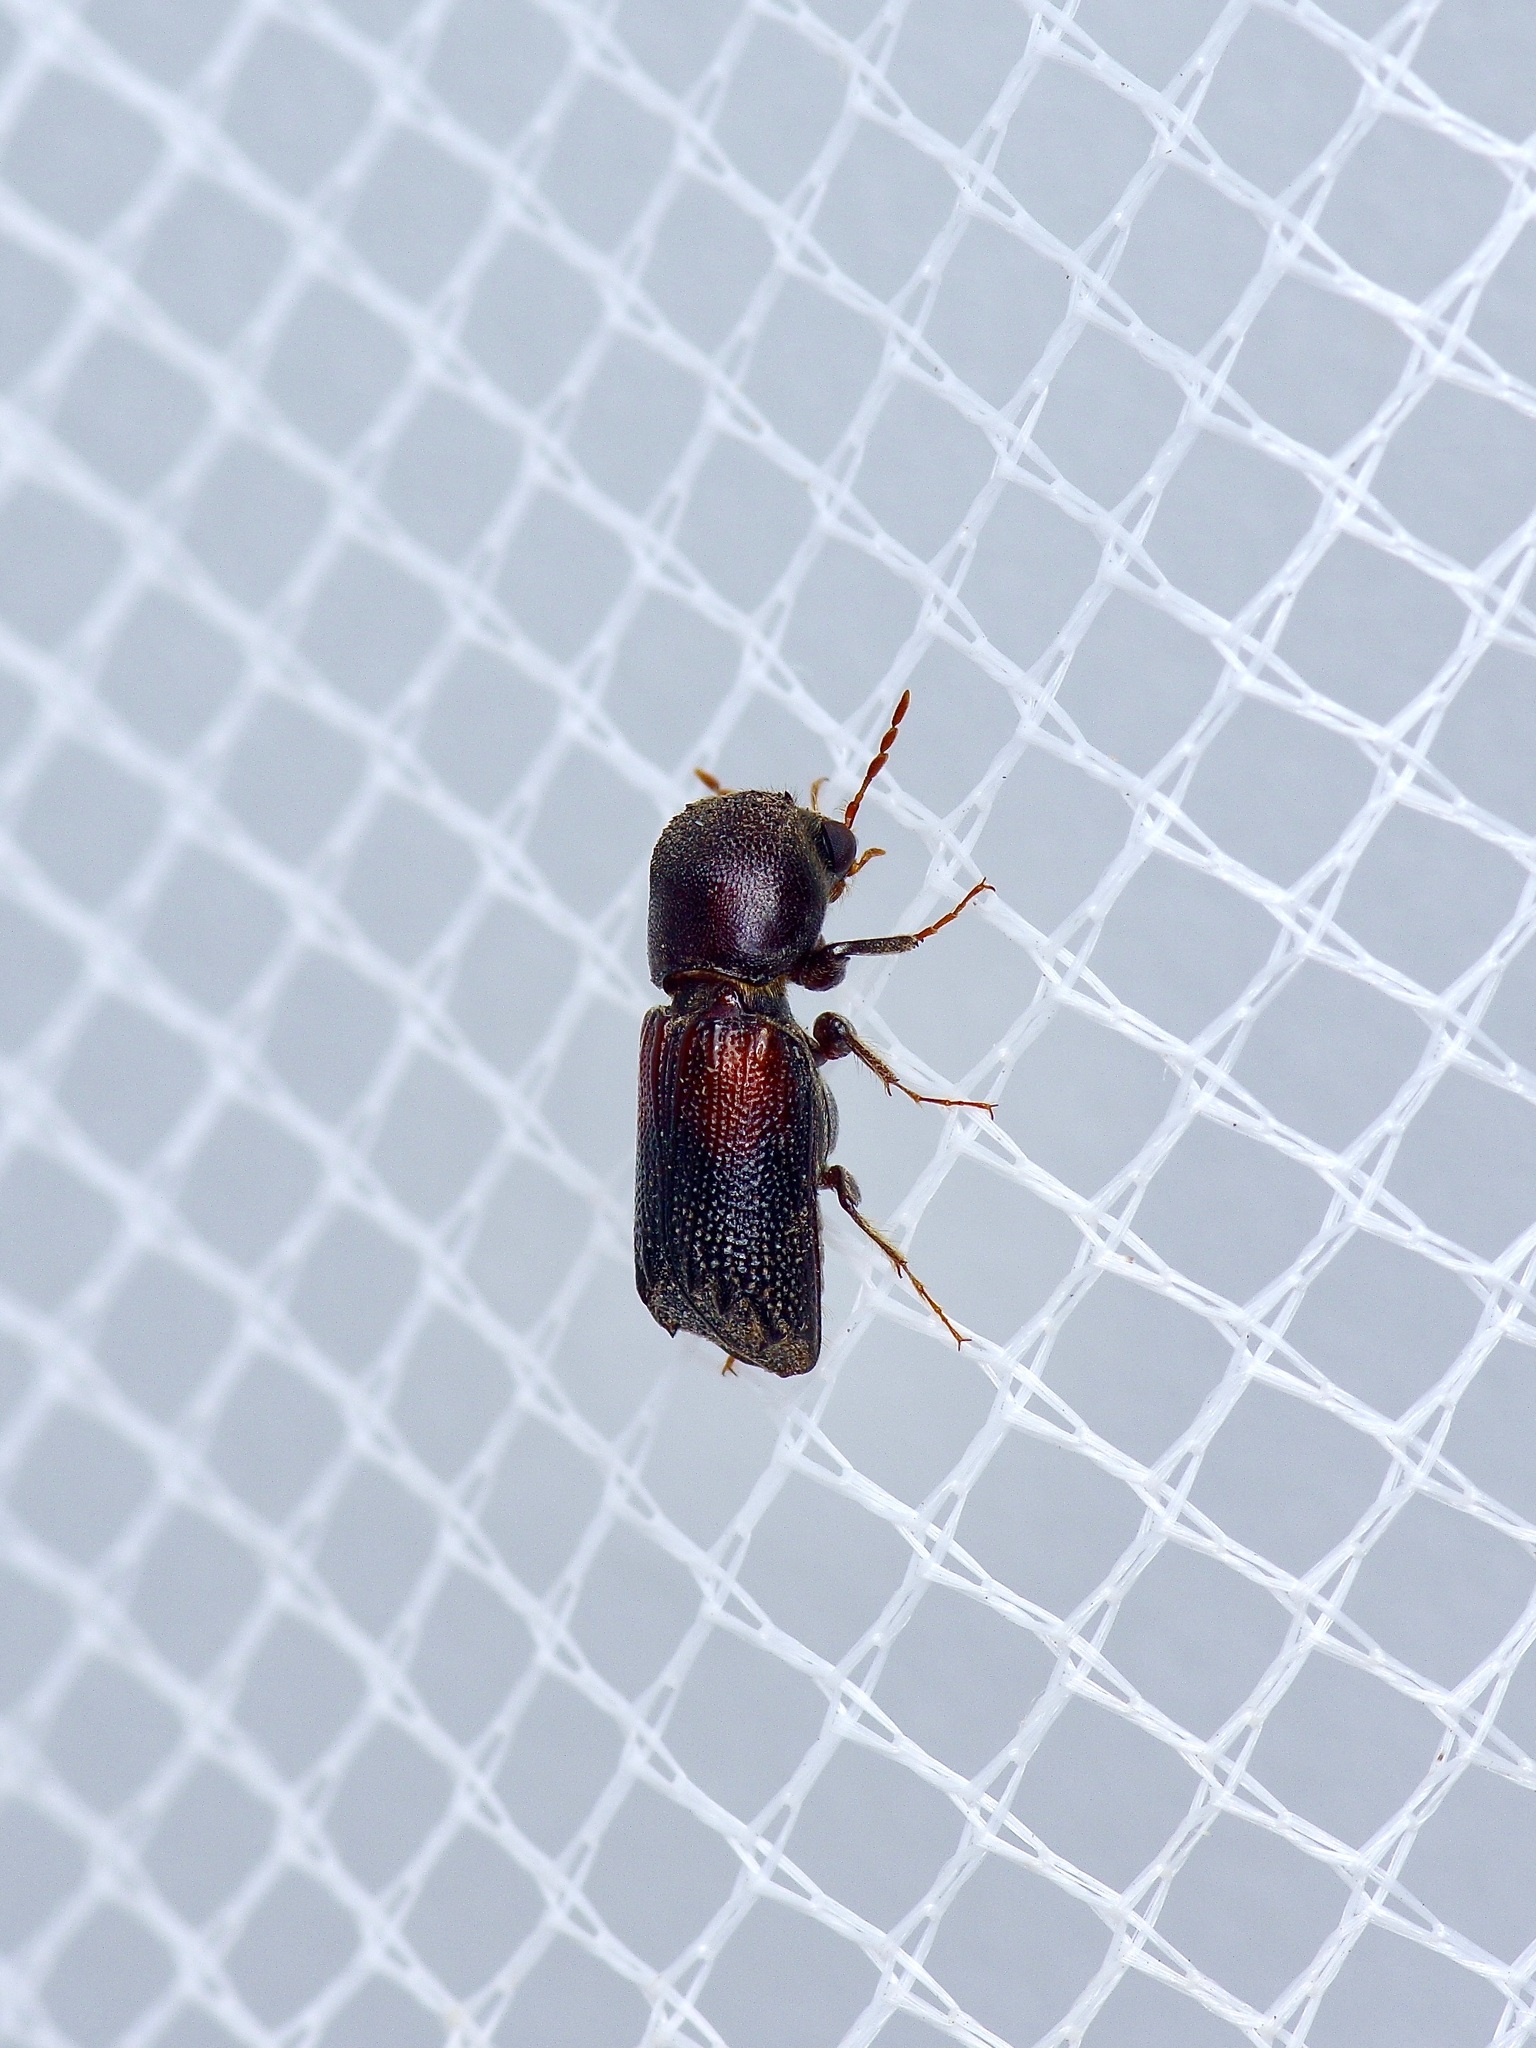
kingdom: Animalia
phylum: Arthropoda
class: Insecta
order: Coleoptera
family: Bostrichidae
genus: Xylobiops
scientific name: Xylobiops basilaris
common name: Red-shouldered bostrichid
